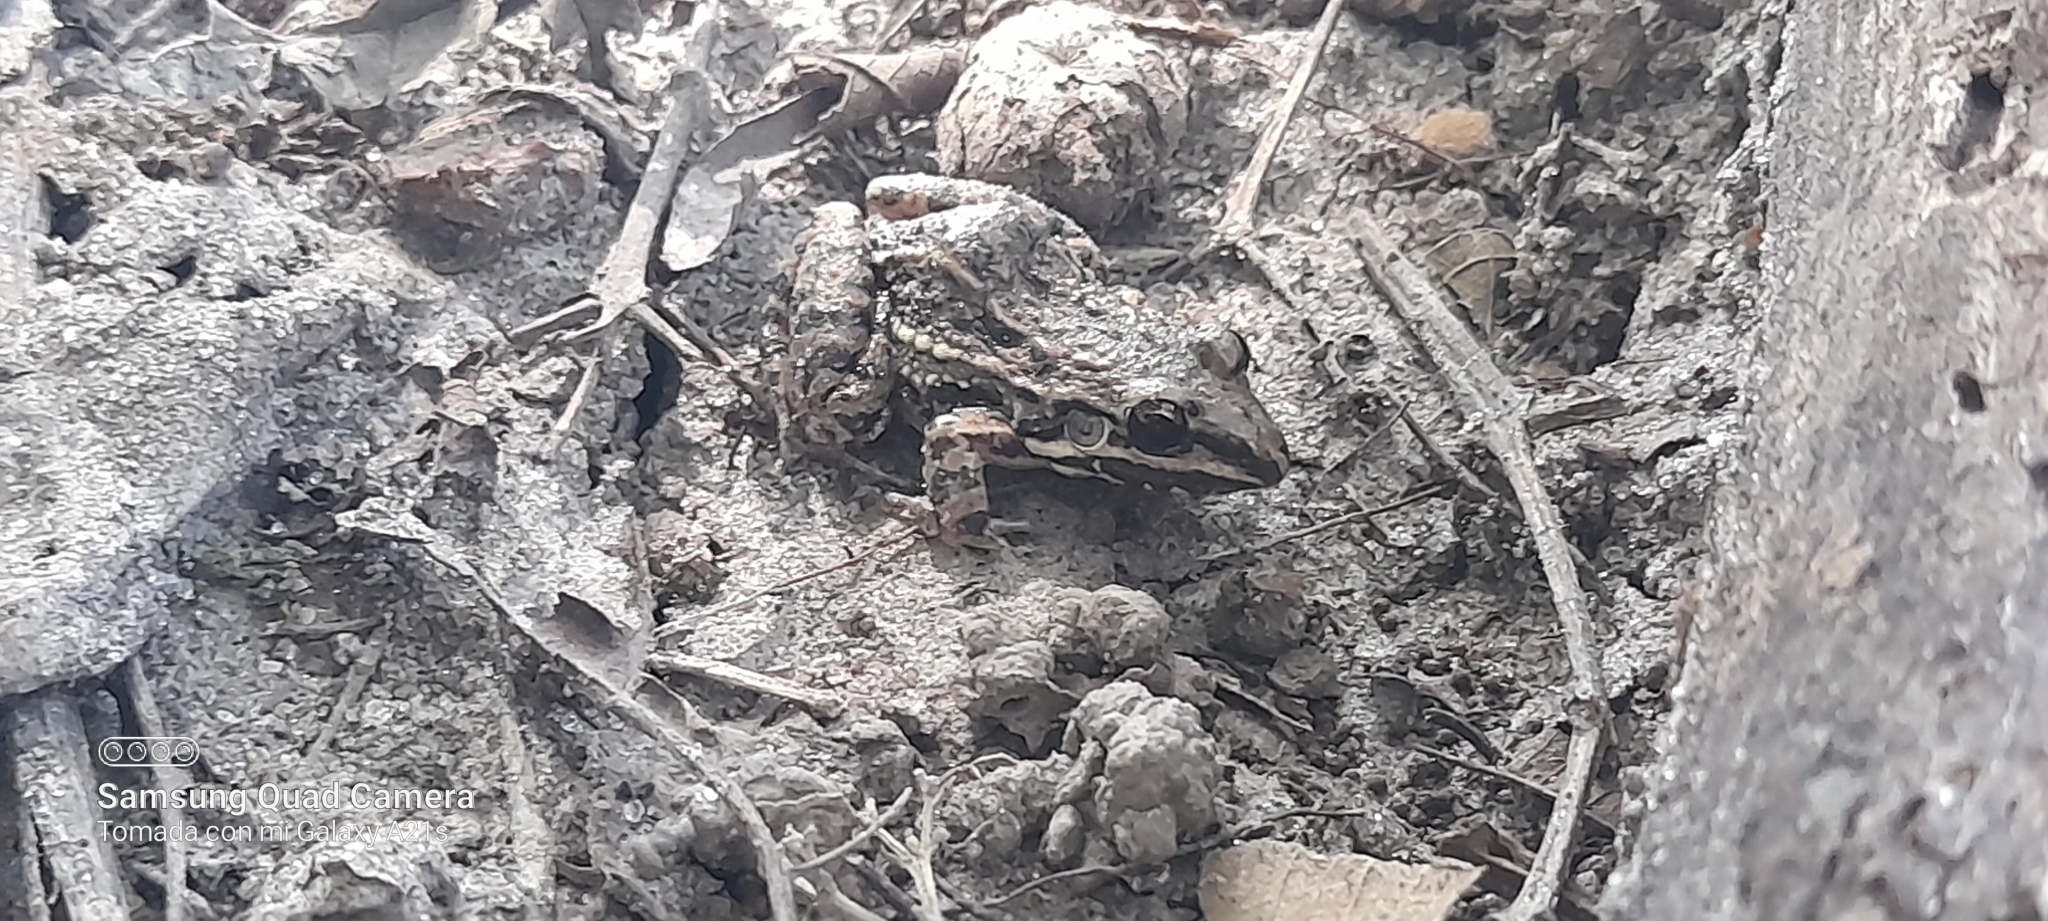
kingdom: Animalia
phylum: Chordata
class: Amphibia
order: Anura
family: Leptodactylidae
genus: Leptodactylus
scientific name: Leptodactylus fragilis
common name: Mexican white-lipped frog
